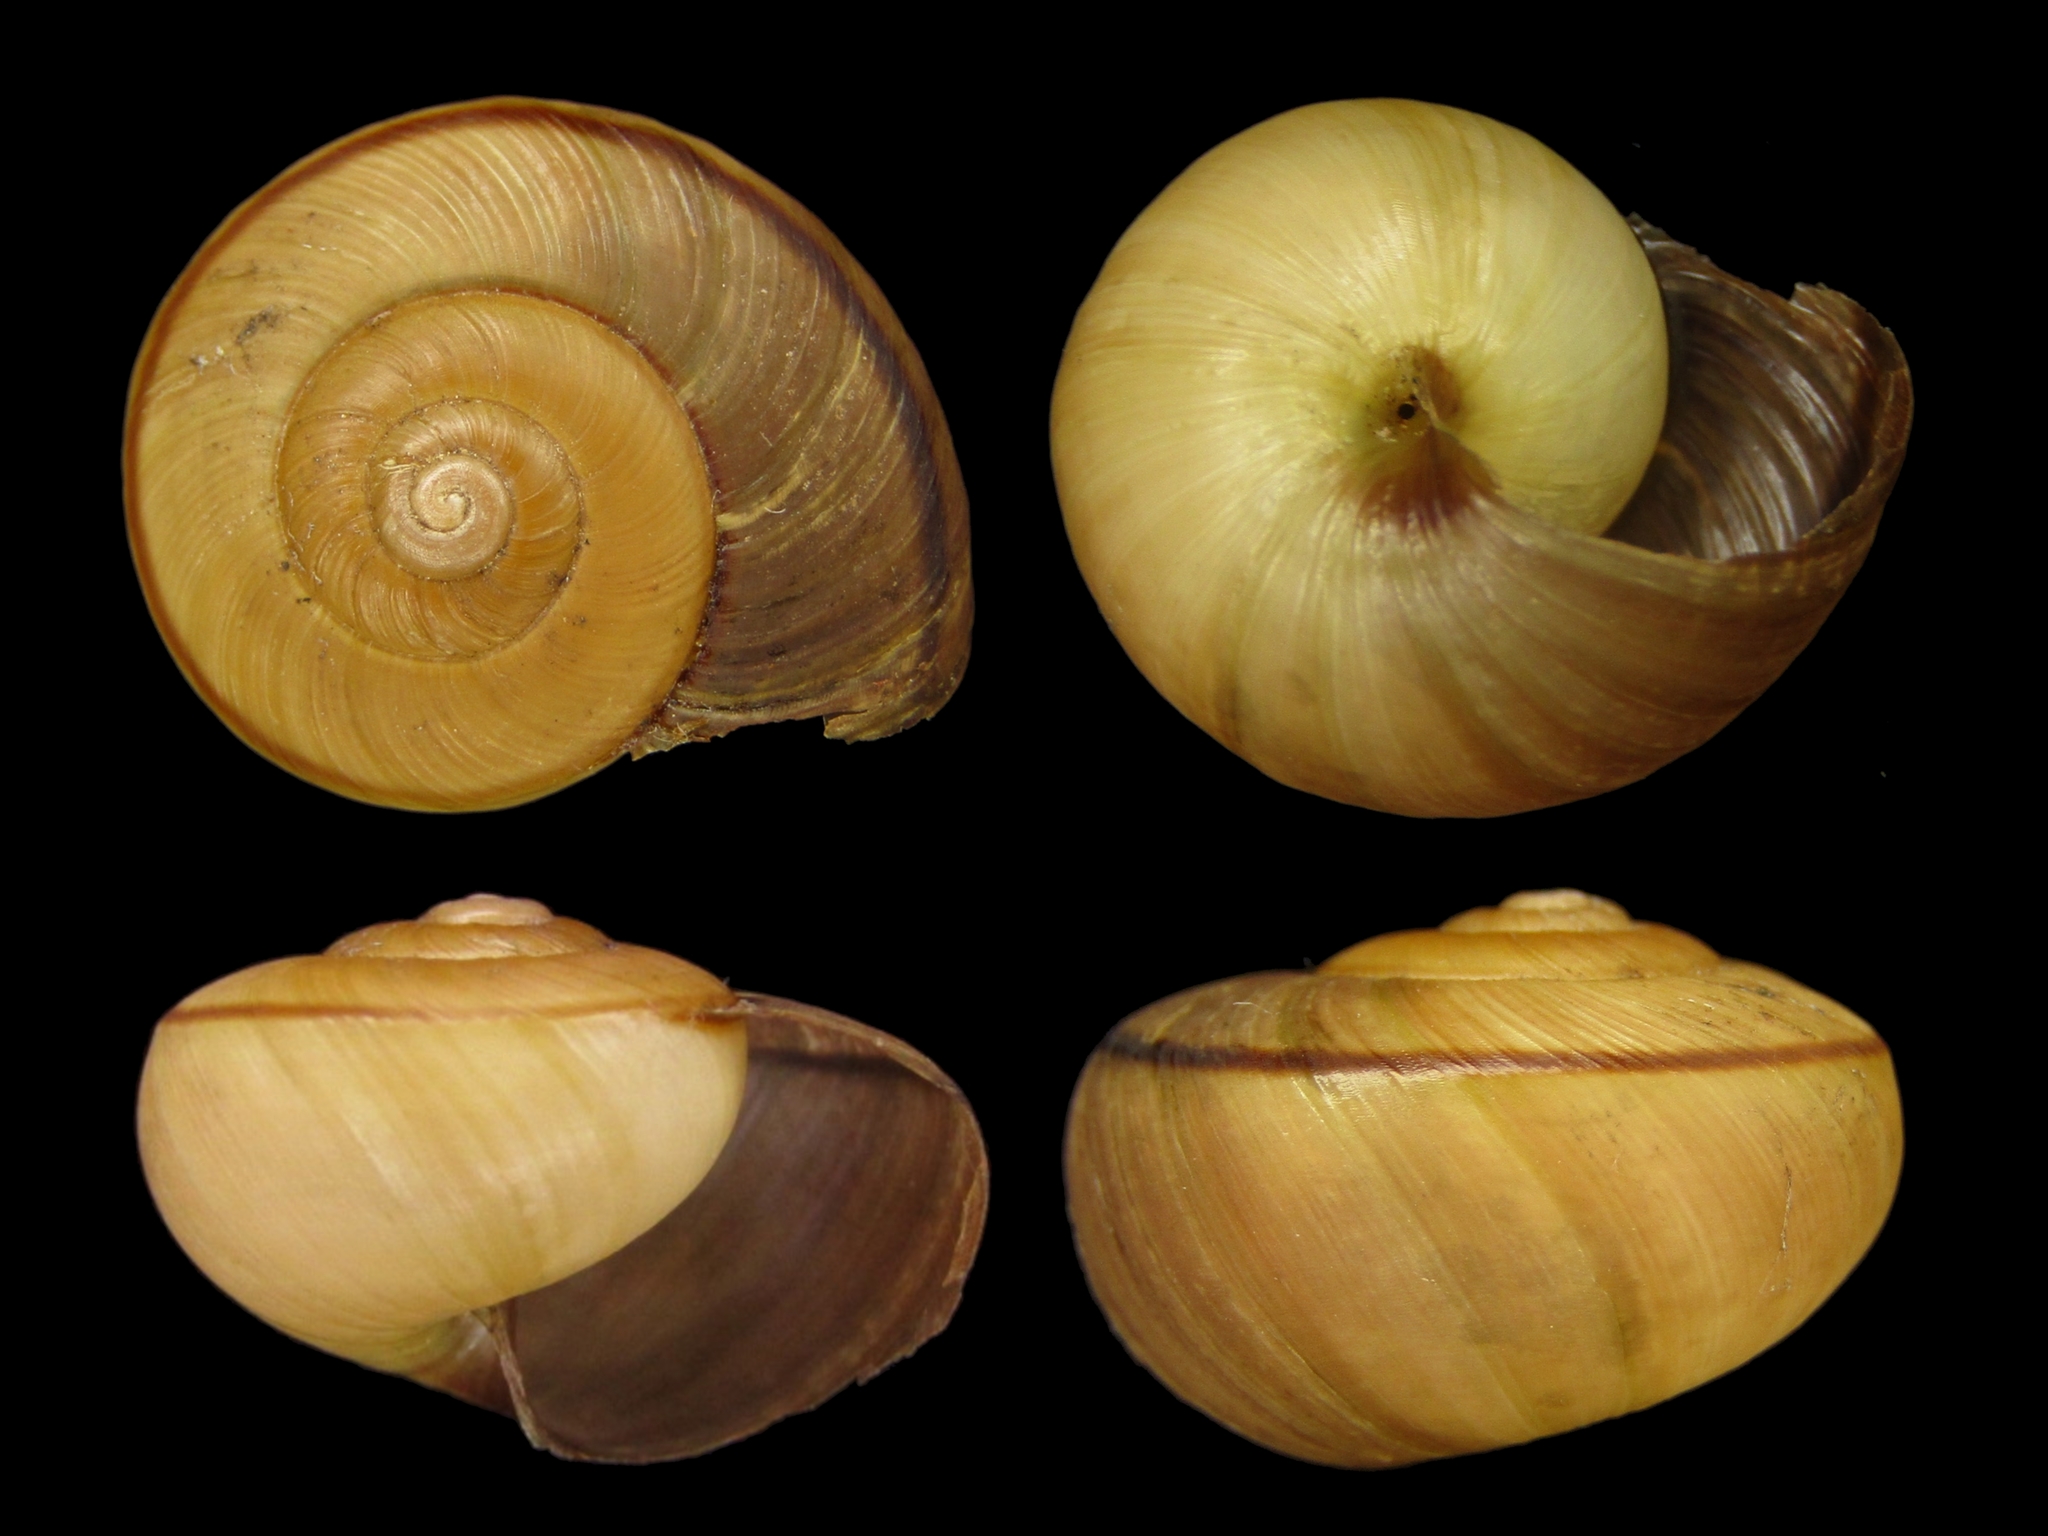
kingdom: Animalia
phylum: Mollusca
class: Gastropoda
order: Stylommatophora
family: Camaenidae
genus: Euhadra
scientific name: Euhadra eoa
